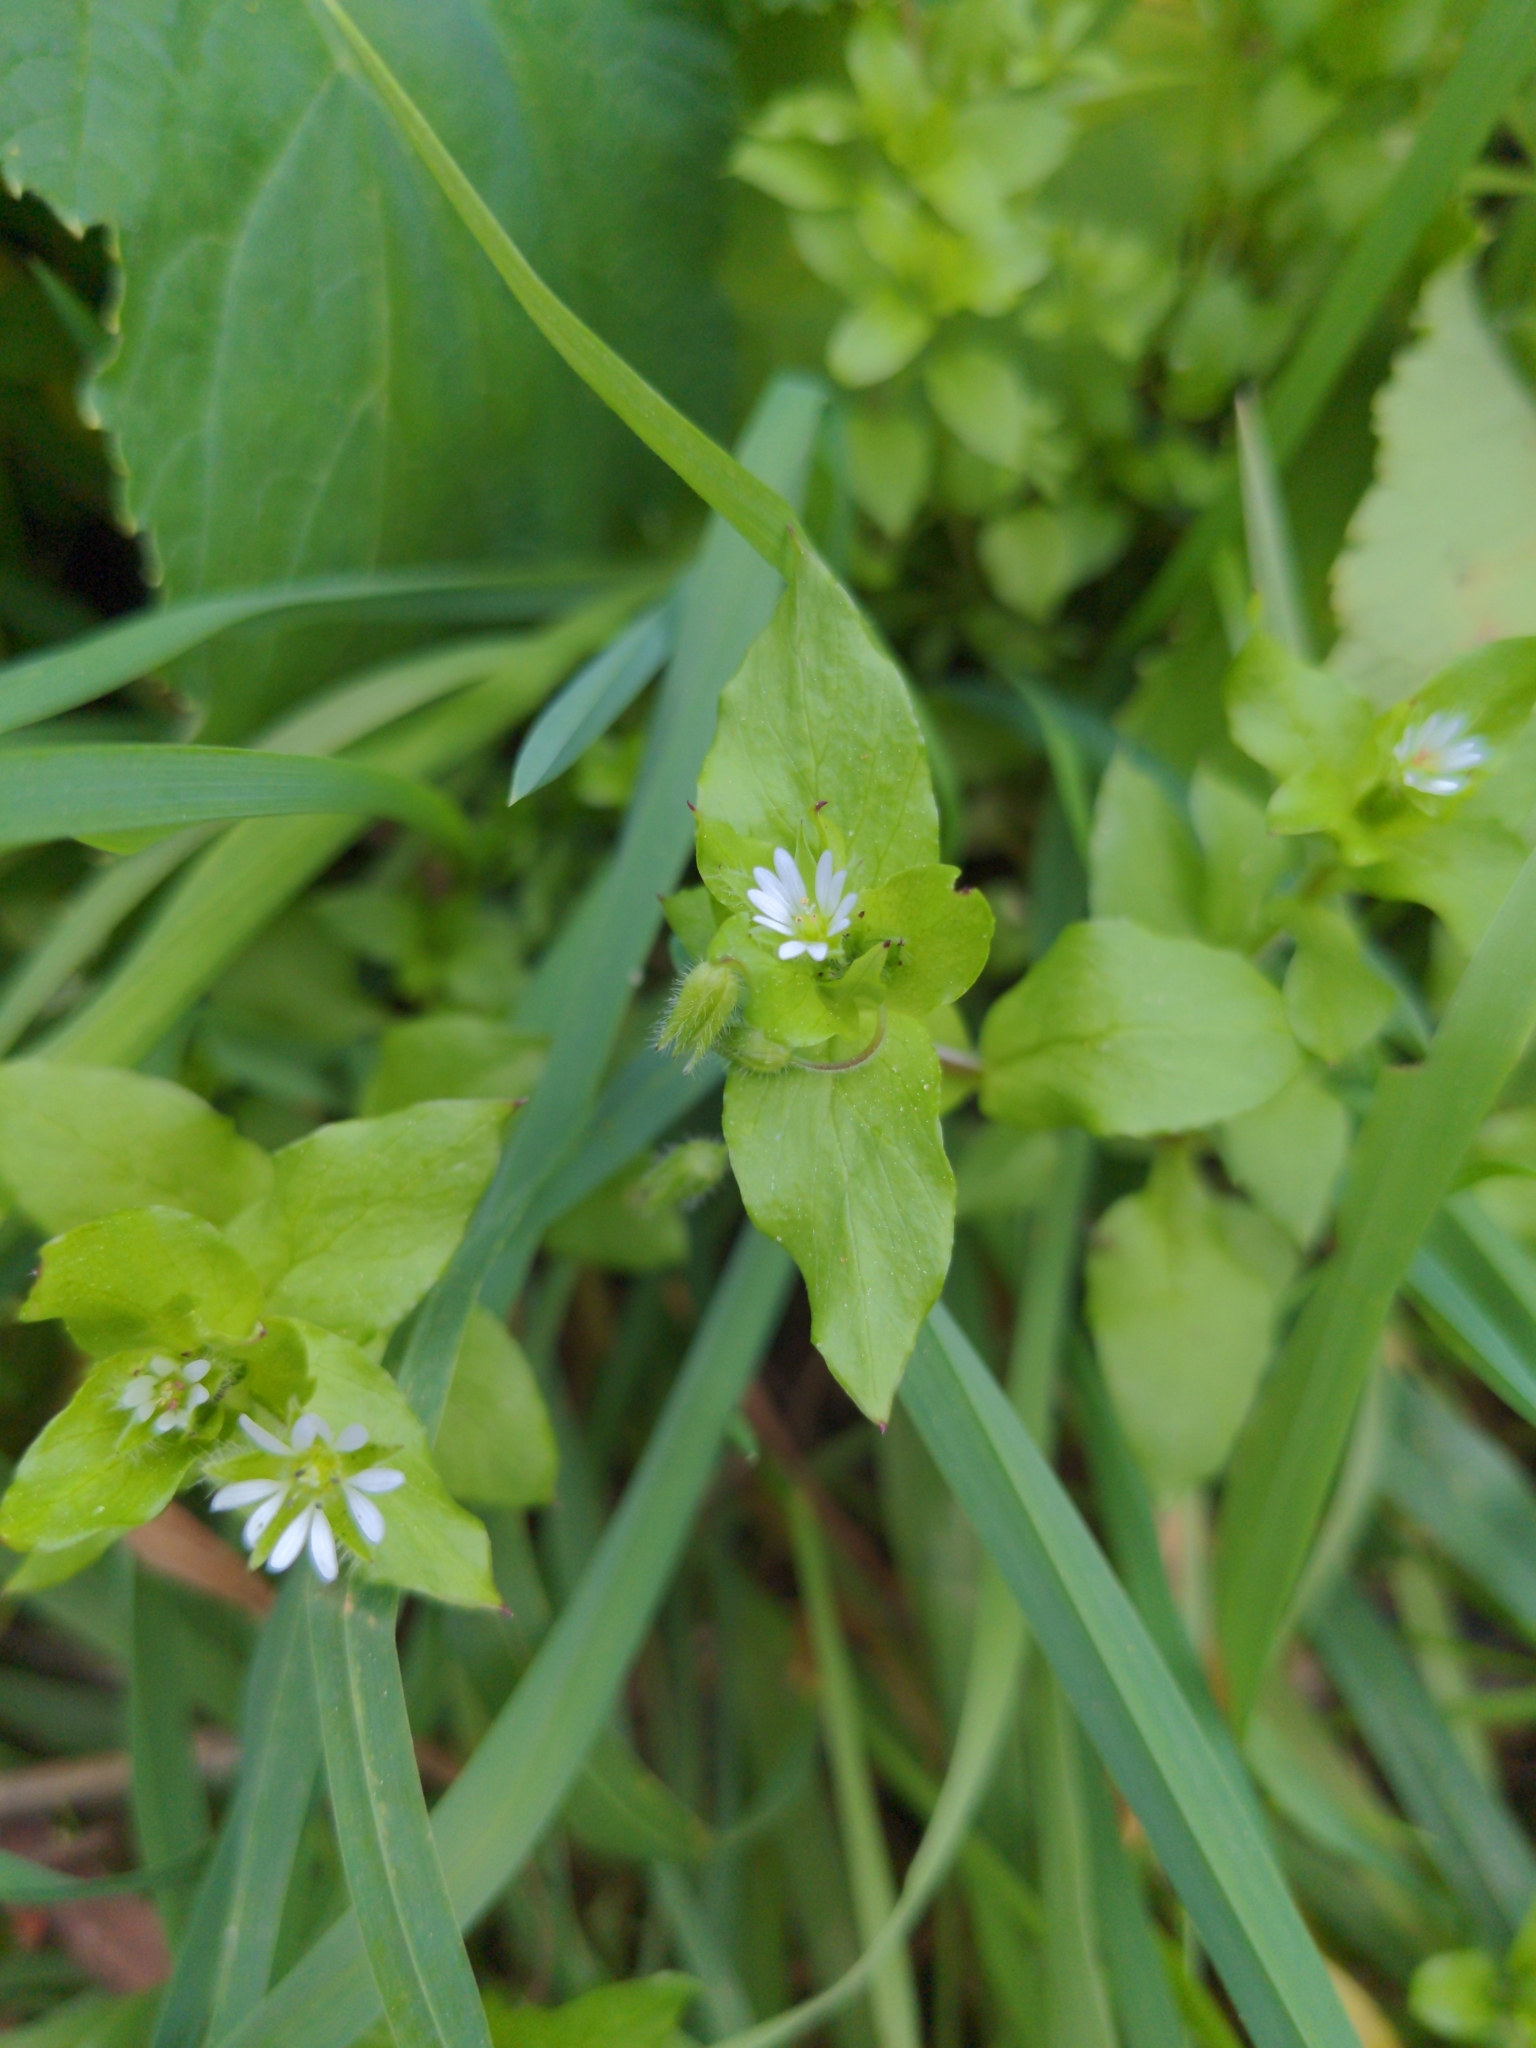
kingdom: Plantae
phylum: Tracheophyta
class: Magnoliopsida
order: Caryophyllales
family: Caryophyllaceae
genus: Stellaria
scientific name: Stellaria media
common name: Common chickweed
